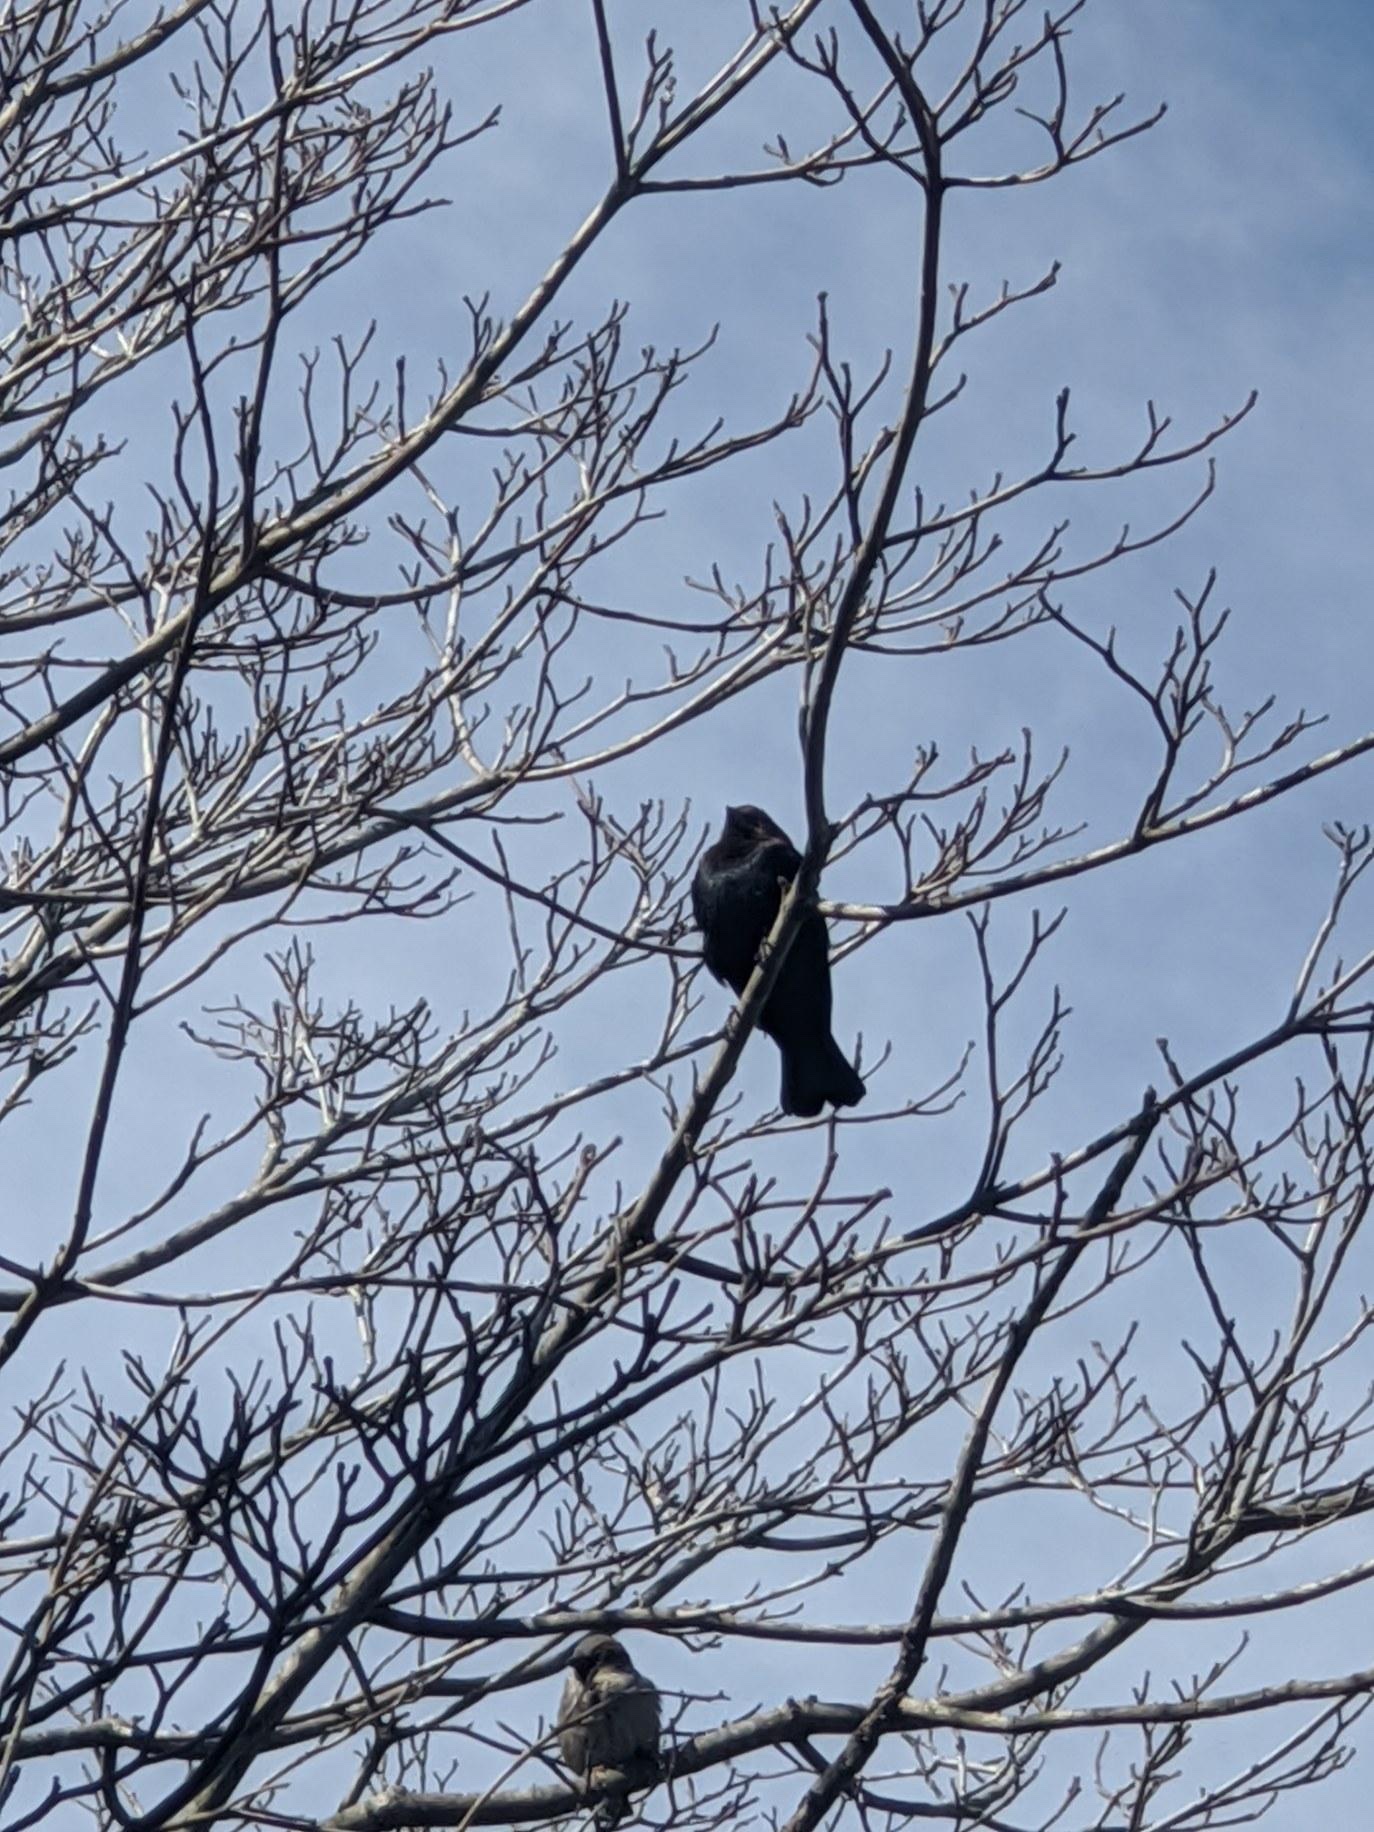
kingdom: Animalia
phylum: Chordata
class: Aves
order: Passeriformes
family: Icteridae
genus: Molothrus
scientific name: Molothrus ater
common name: Brown-headed cowbird
